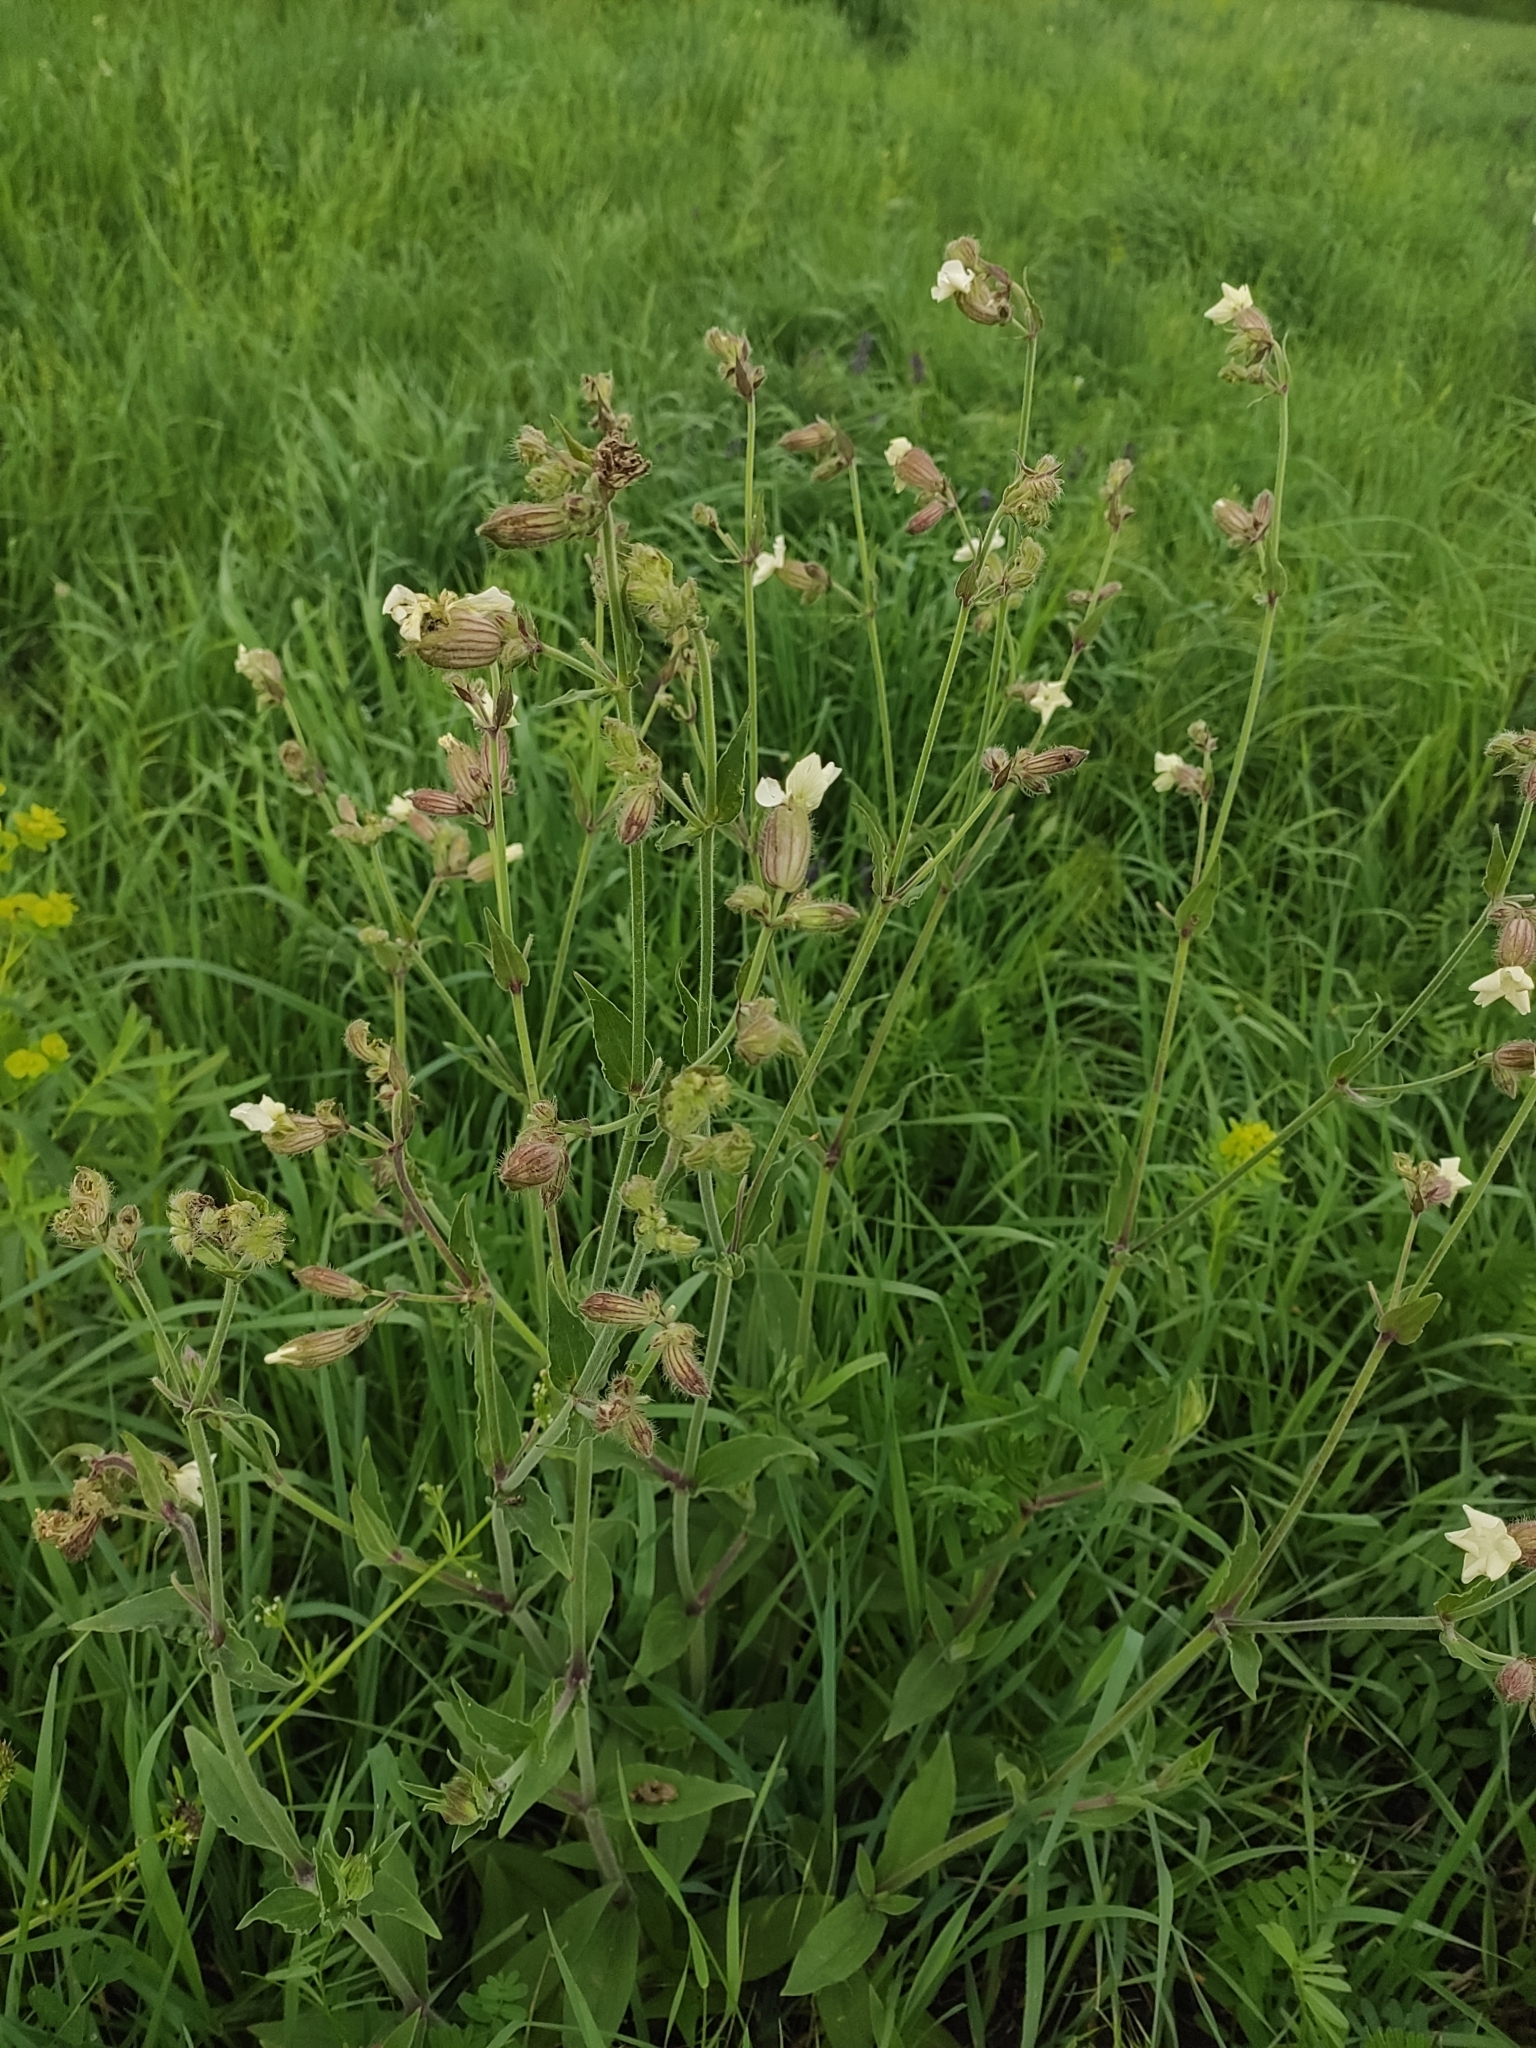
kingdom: Plantae
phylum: Tracheophyta
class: Magnoliopsida
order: Caryophyllales
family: Caryophyllaceae
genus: Silene
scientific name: Silene latifolia
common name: White campion
